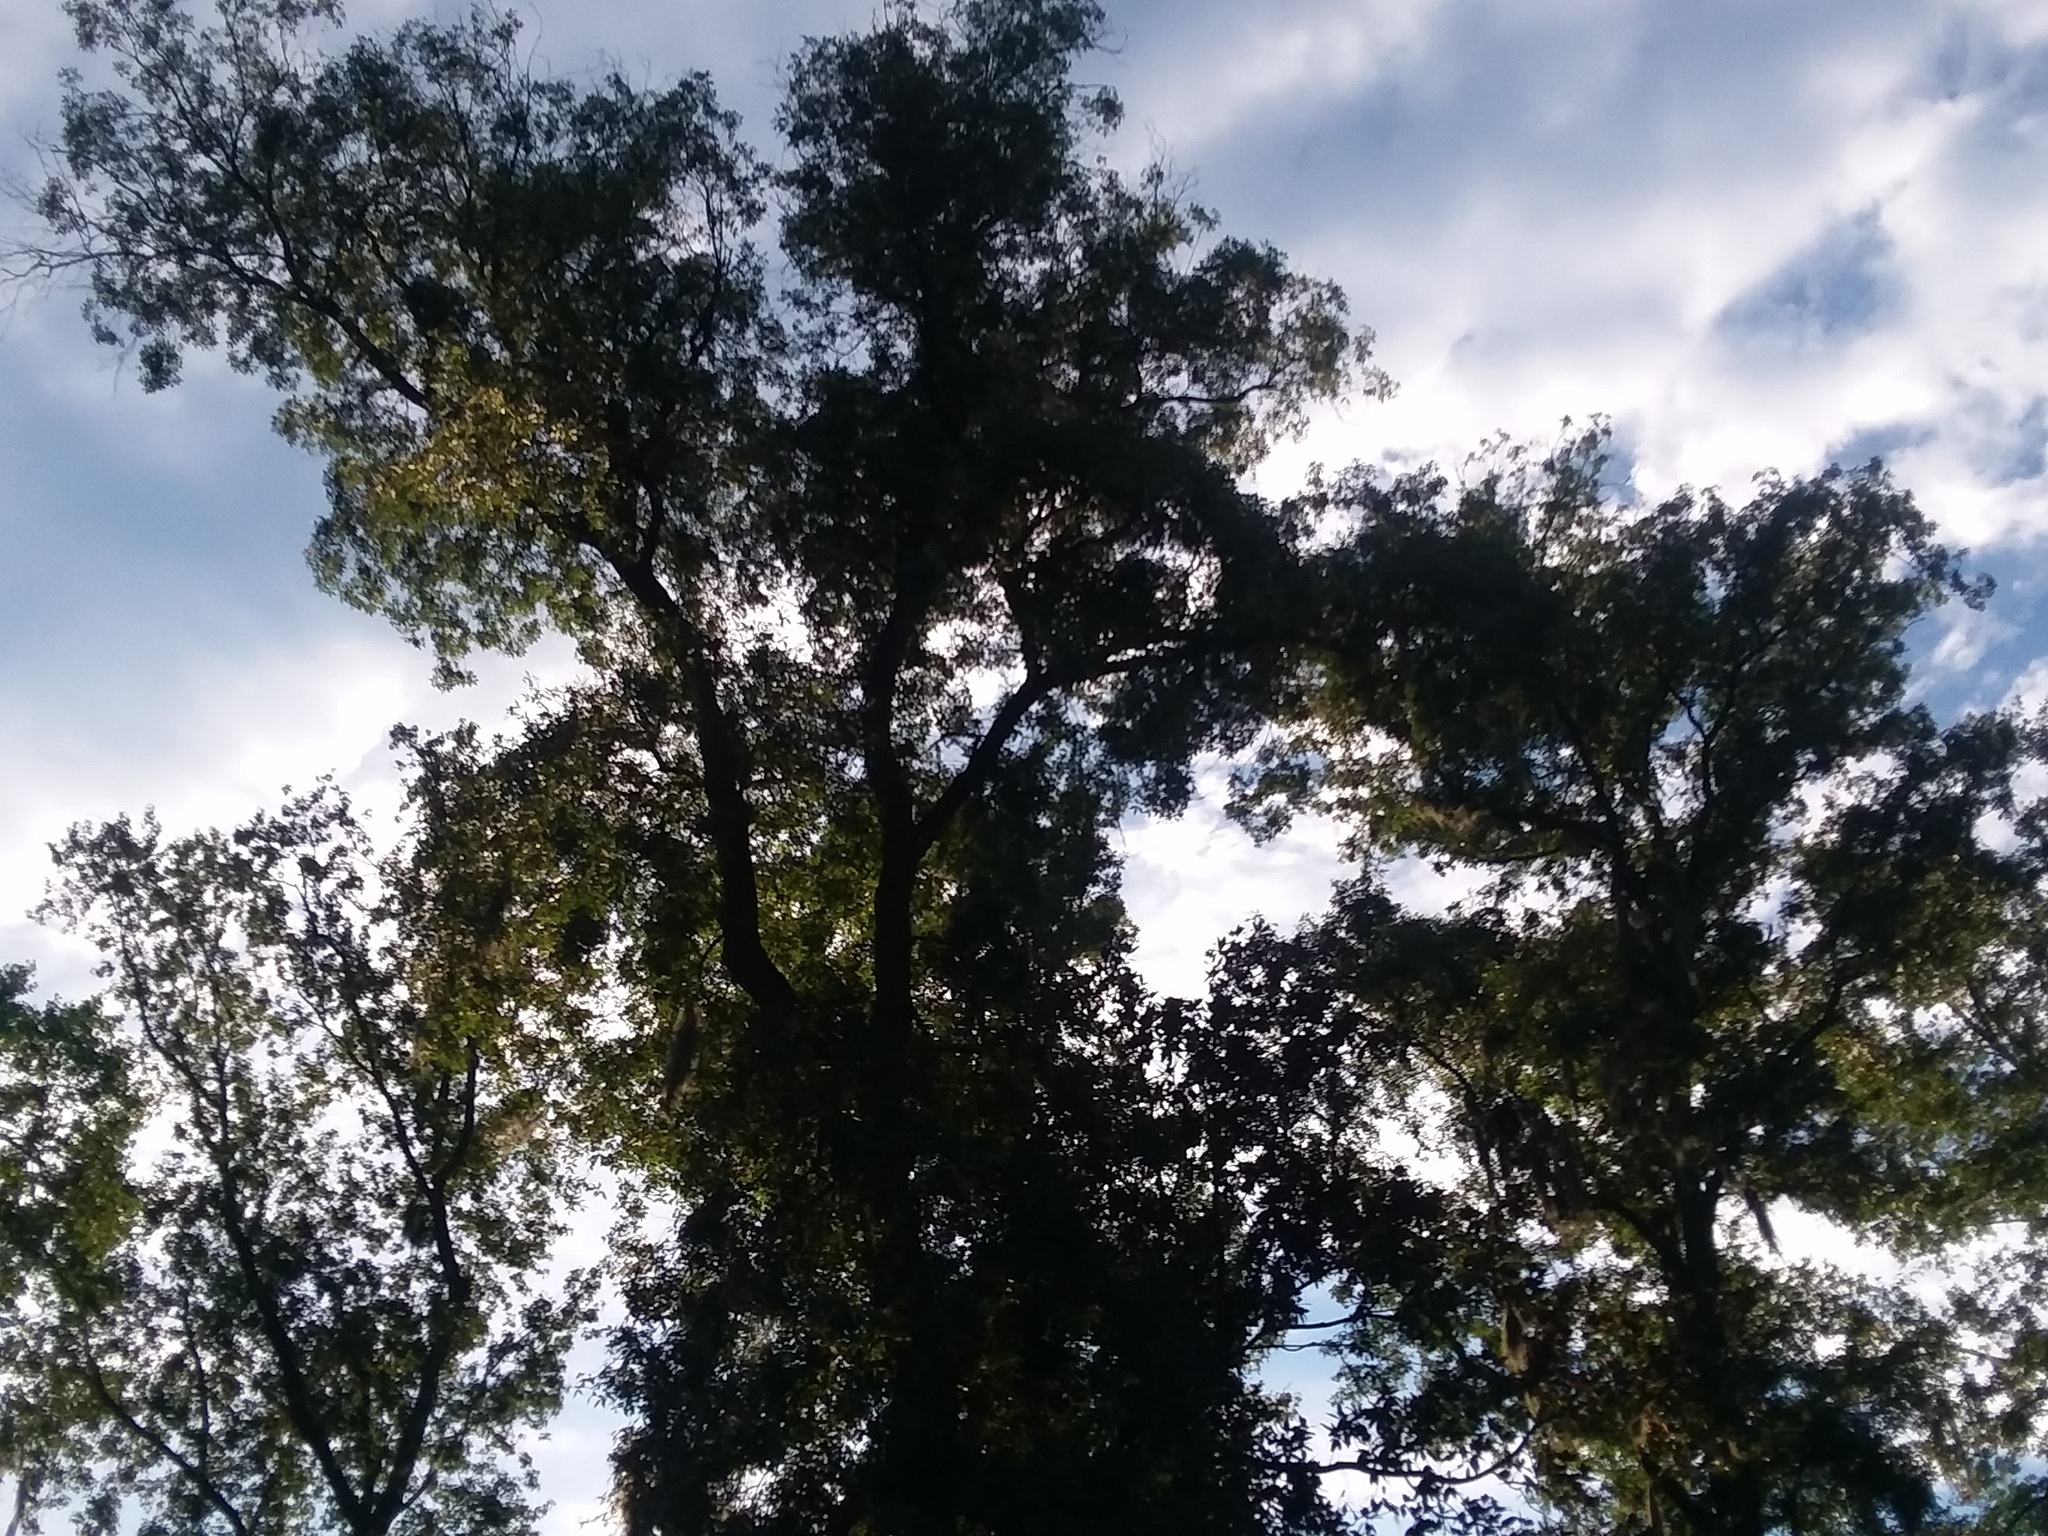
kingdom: Plantae
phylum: Tracheophyta
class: Magnoliopsida
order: Fagales
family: Juglandaceae
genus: Carya
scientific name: Carya glabra
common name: Pignut hickory
